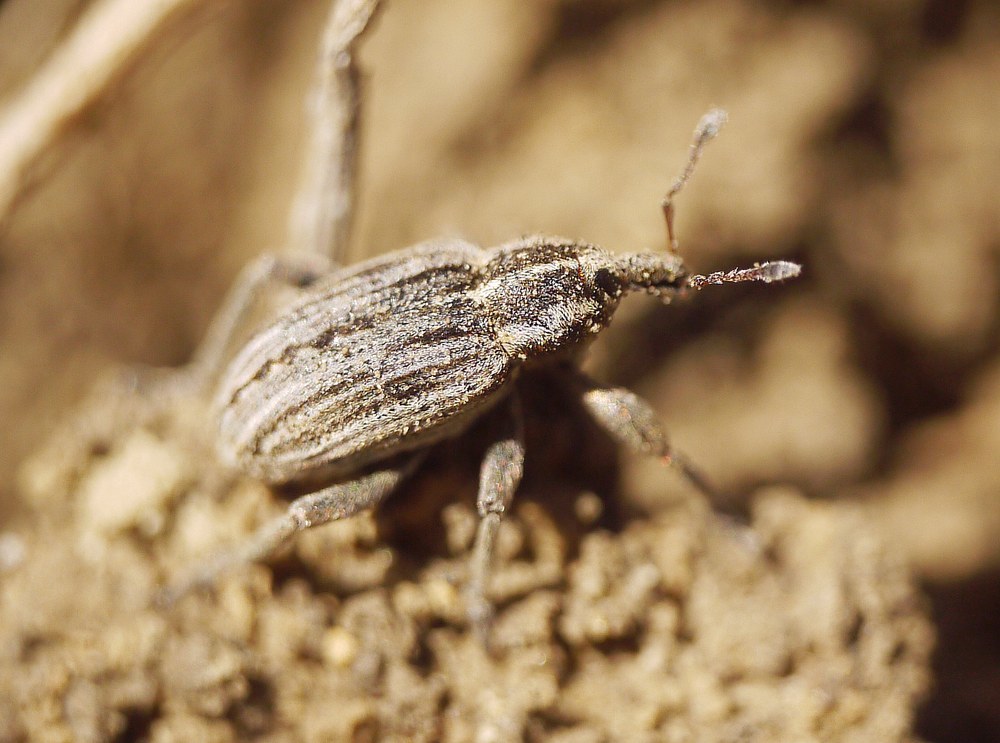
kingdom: Animalia
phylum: Arthropoda
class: Insecta
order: Coleoptera
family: Curculionidae
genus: Hypera
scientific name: Hypera arator
